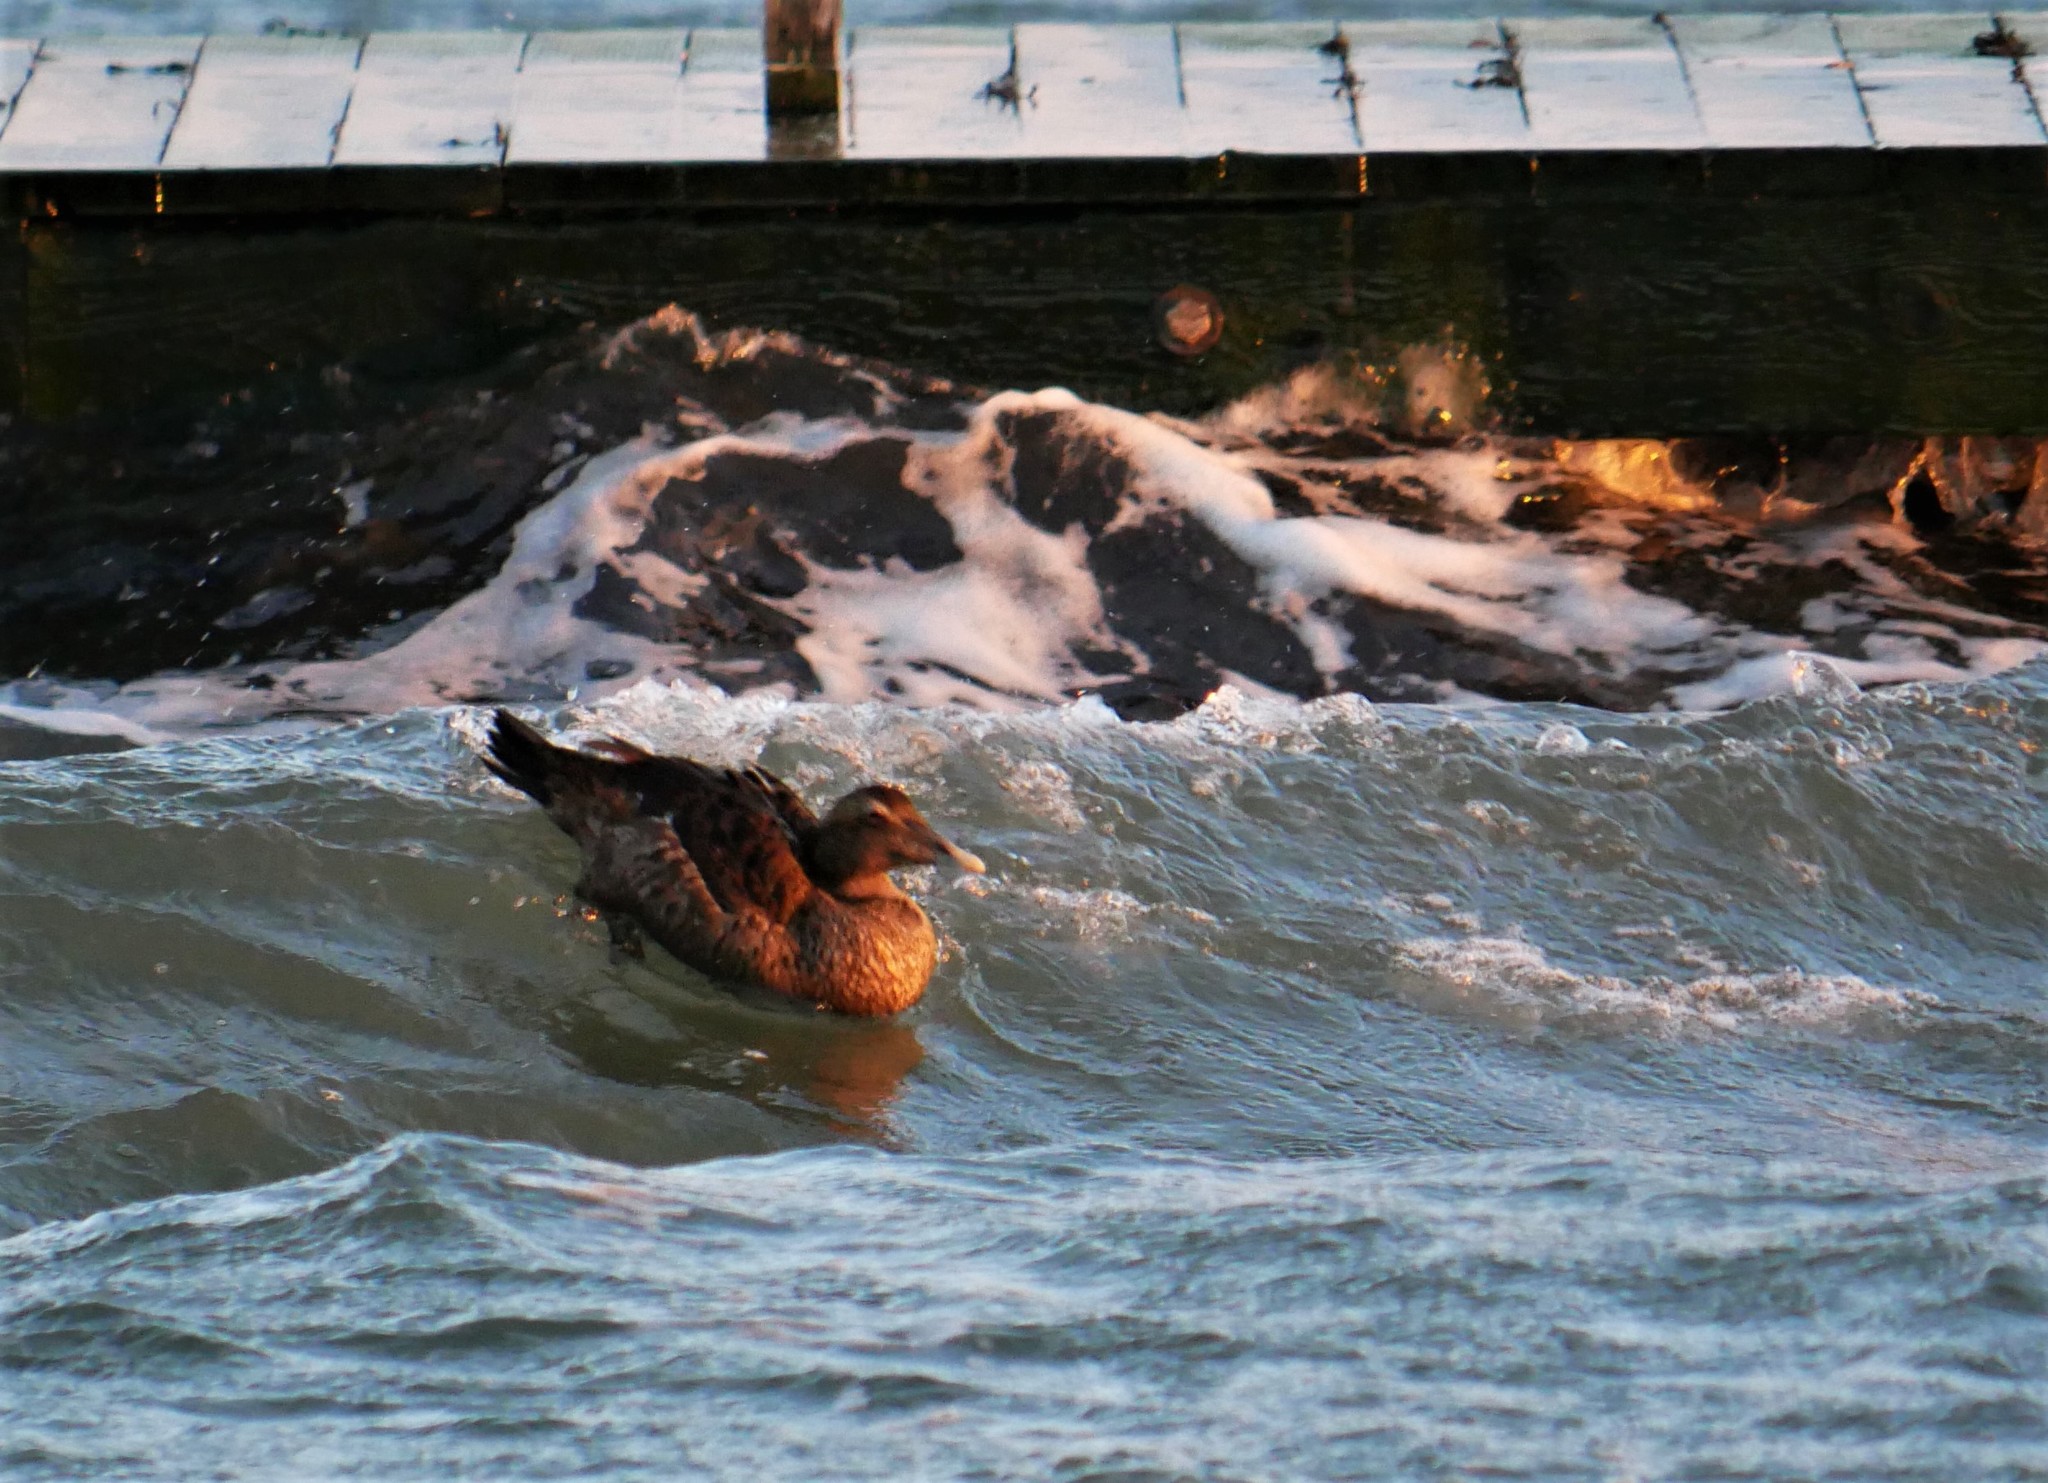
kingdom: Animalia
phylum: Chordata
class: Aves
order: Anseriformes
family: Anatidae
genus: Somateria
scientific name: Somateria mollissima
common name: Common eider
